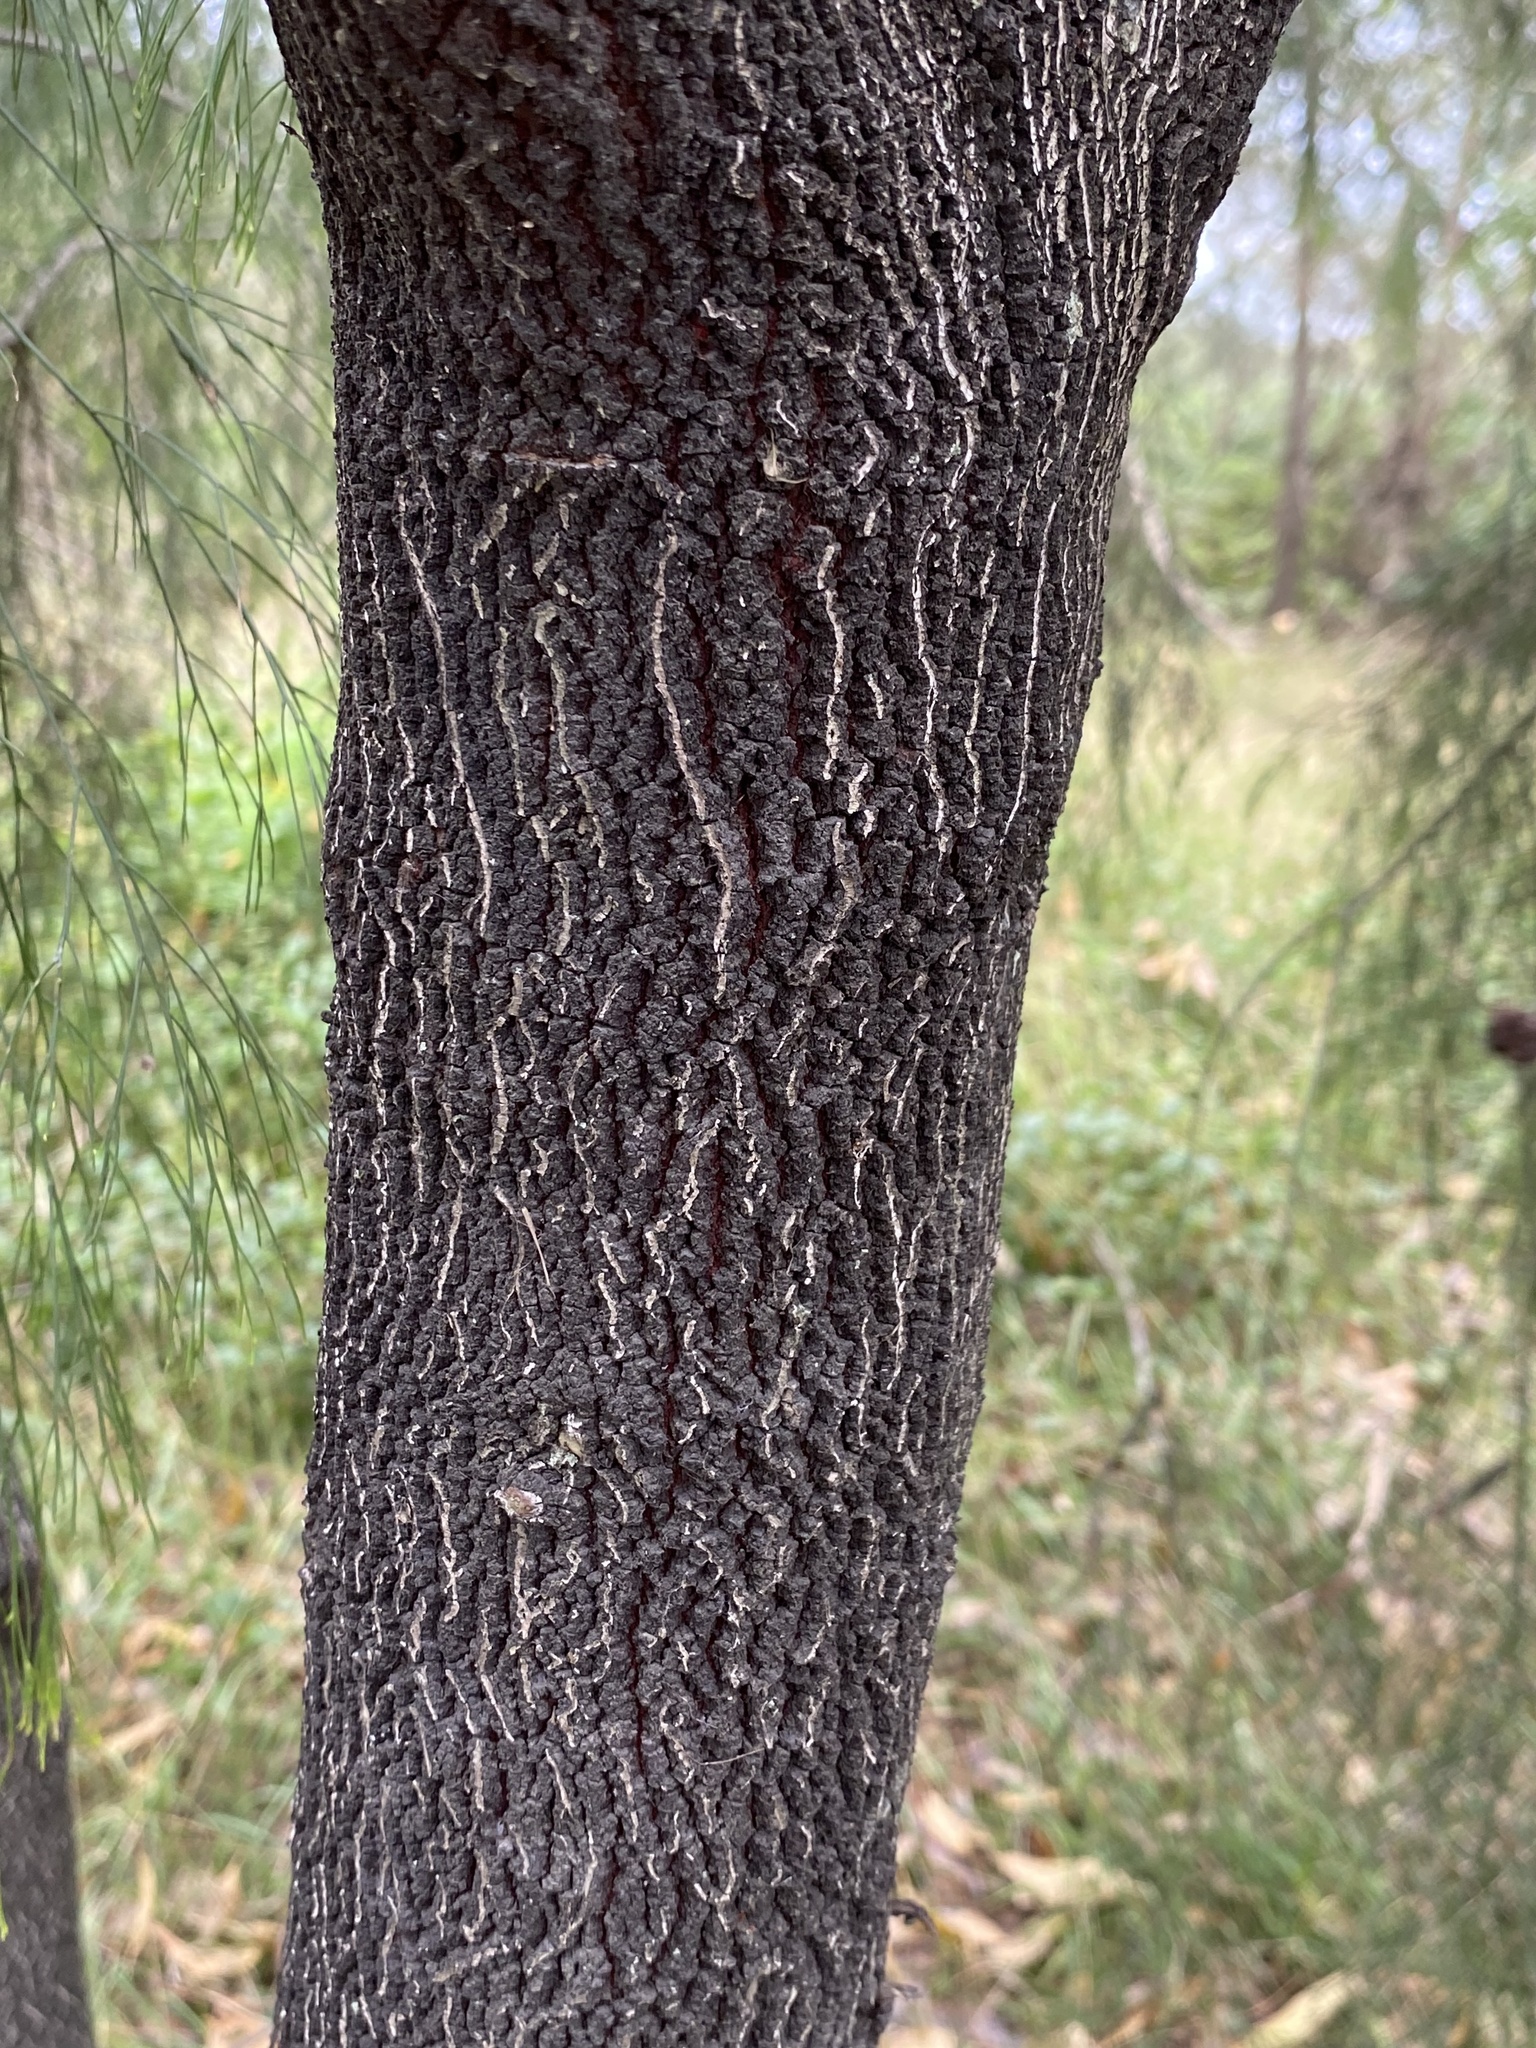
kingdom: Plantae
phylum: Tracheophyta
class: Magnoliopsida
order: Santalales
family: Santalaceae
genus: Exocarpos
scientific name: Exocarpos cupressiformis
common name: Cherry ballart
